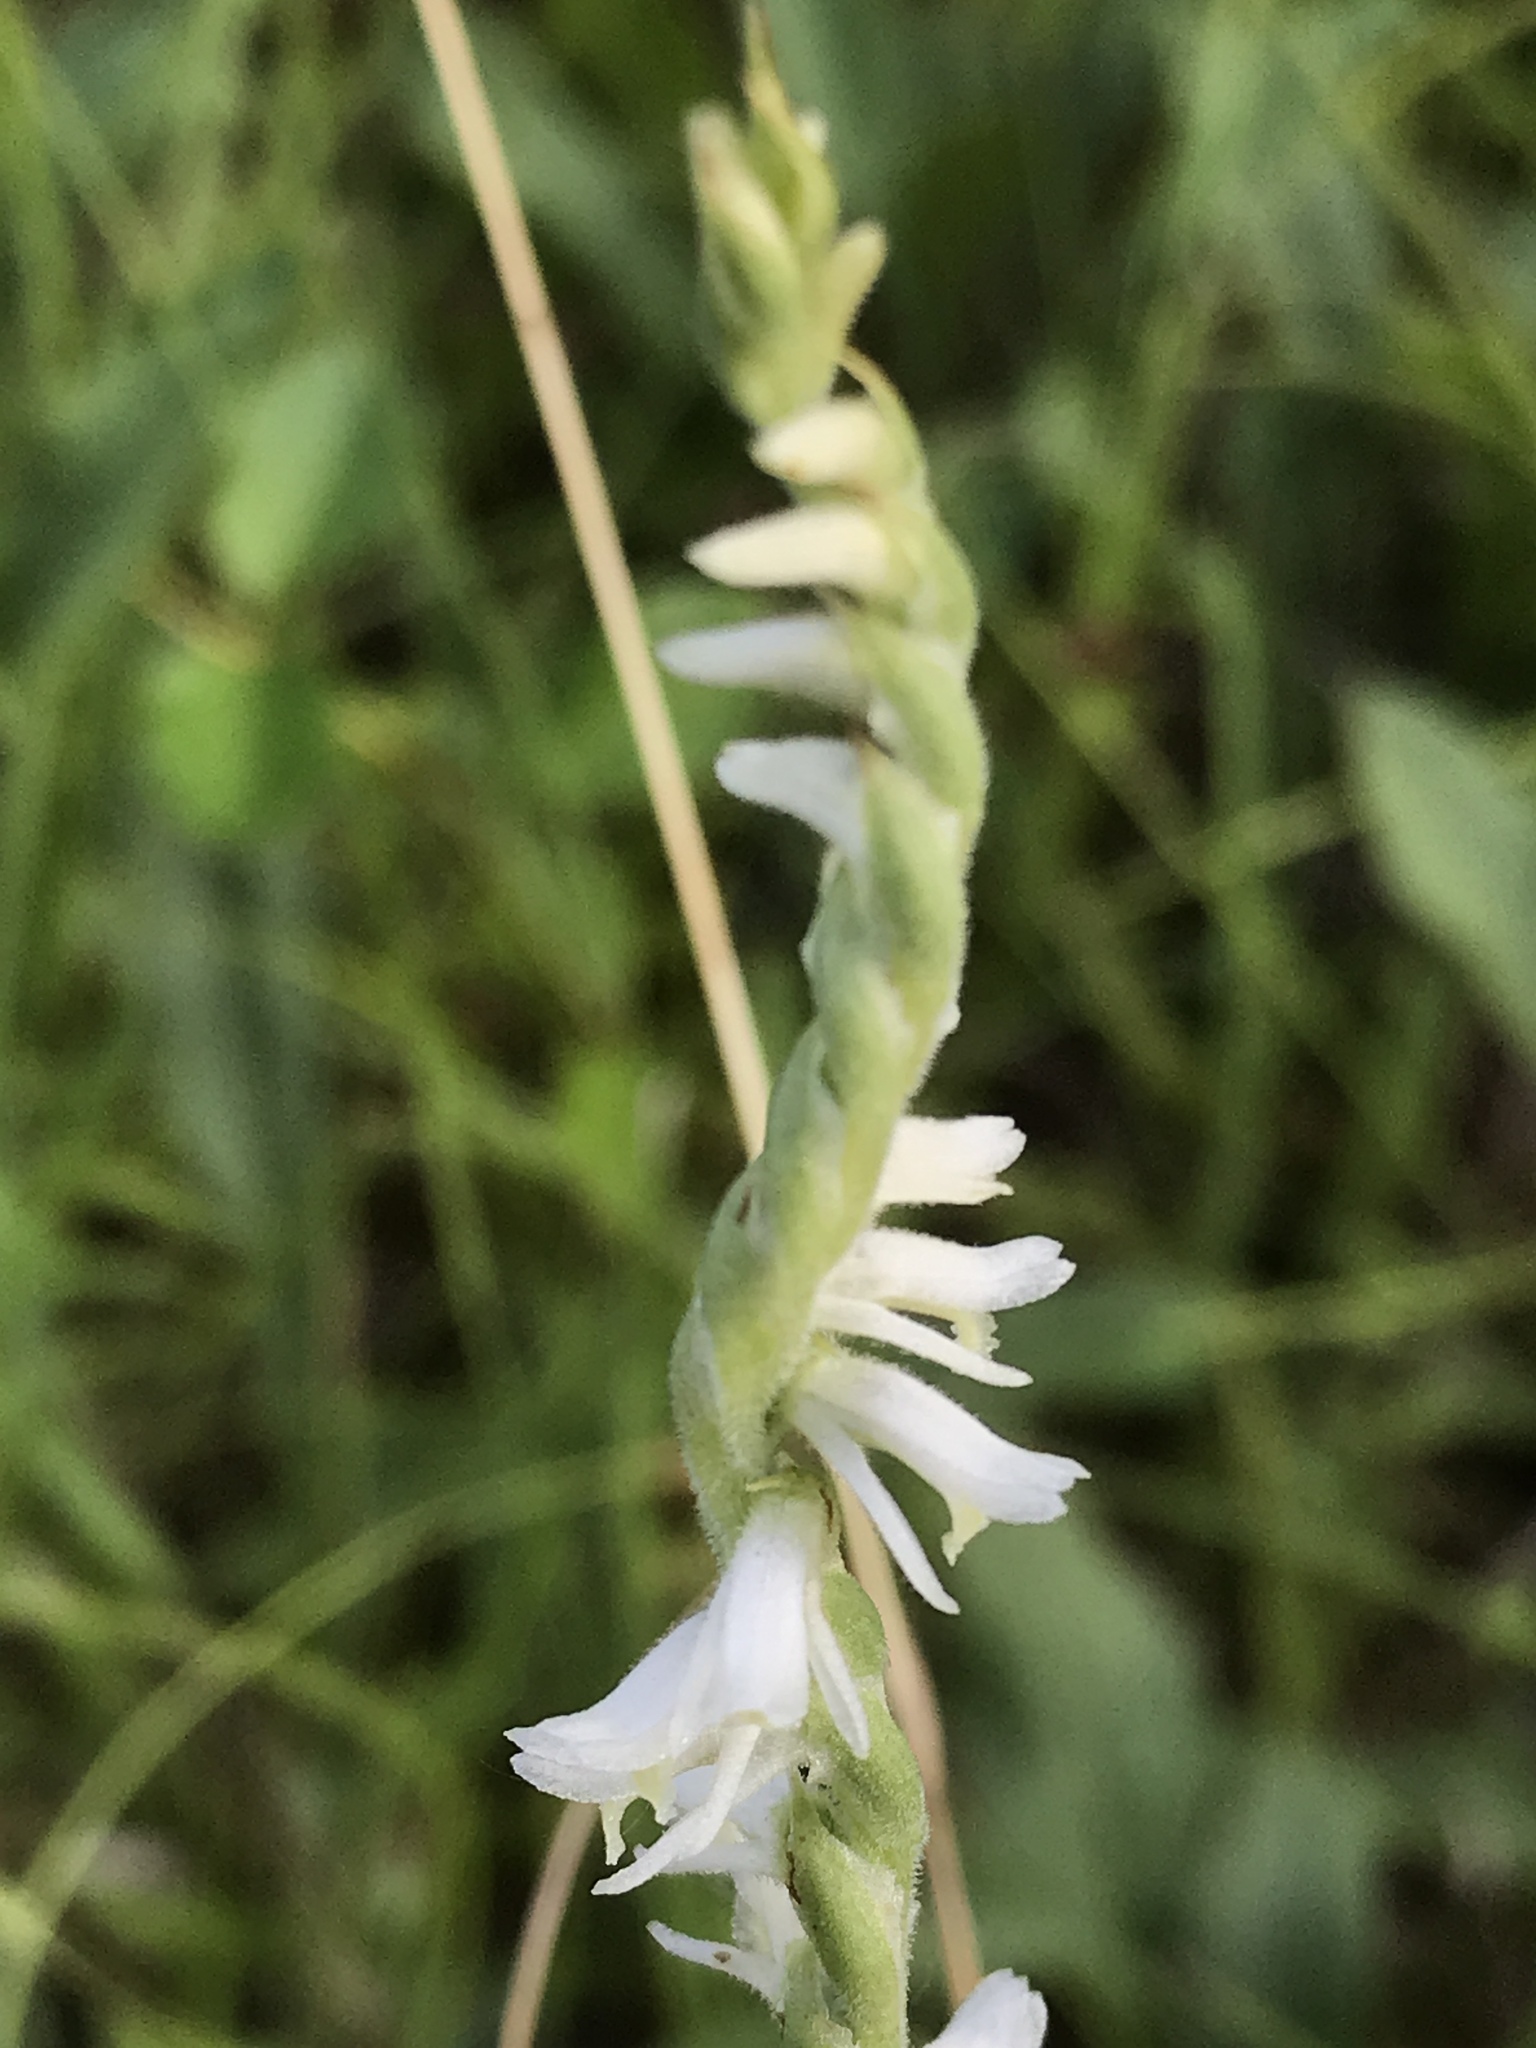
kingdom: Plantae
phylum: Tracheophyta
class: Liliopsida
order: Asparagales
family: Orchidaceae
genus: Spiranthes
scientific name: Spiranthes vernalis
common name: Spring ladies'-tresses
